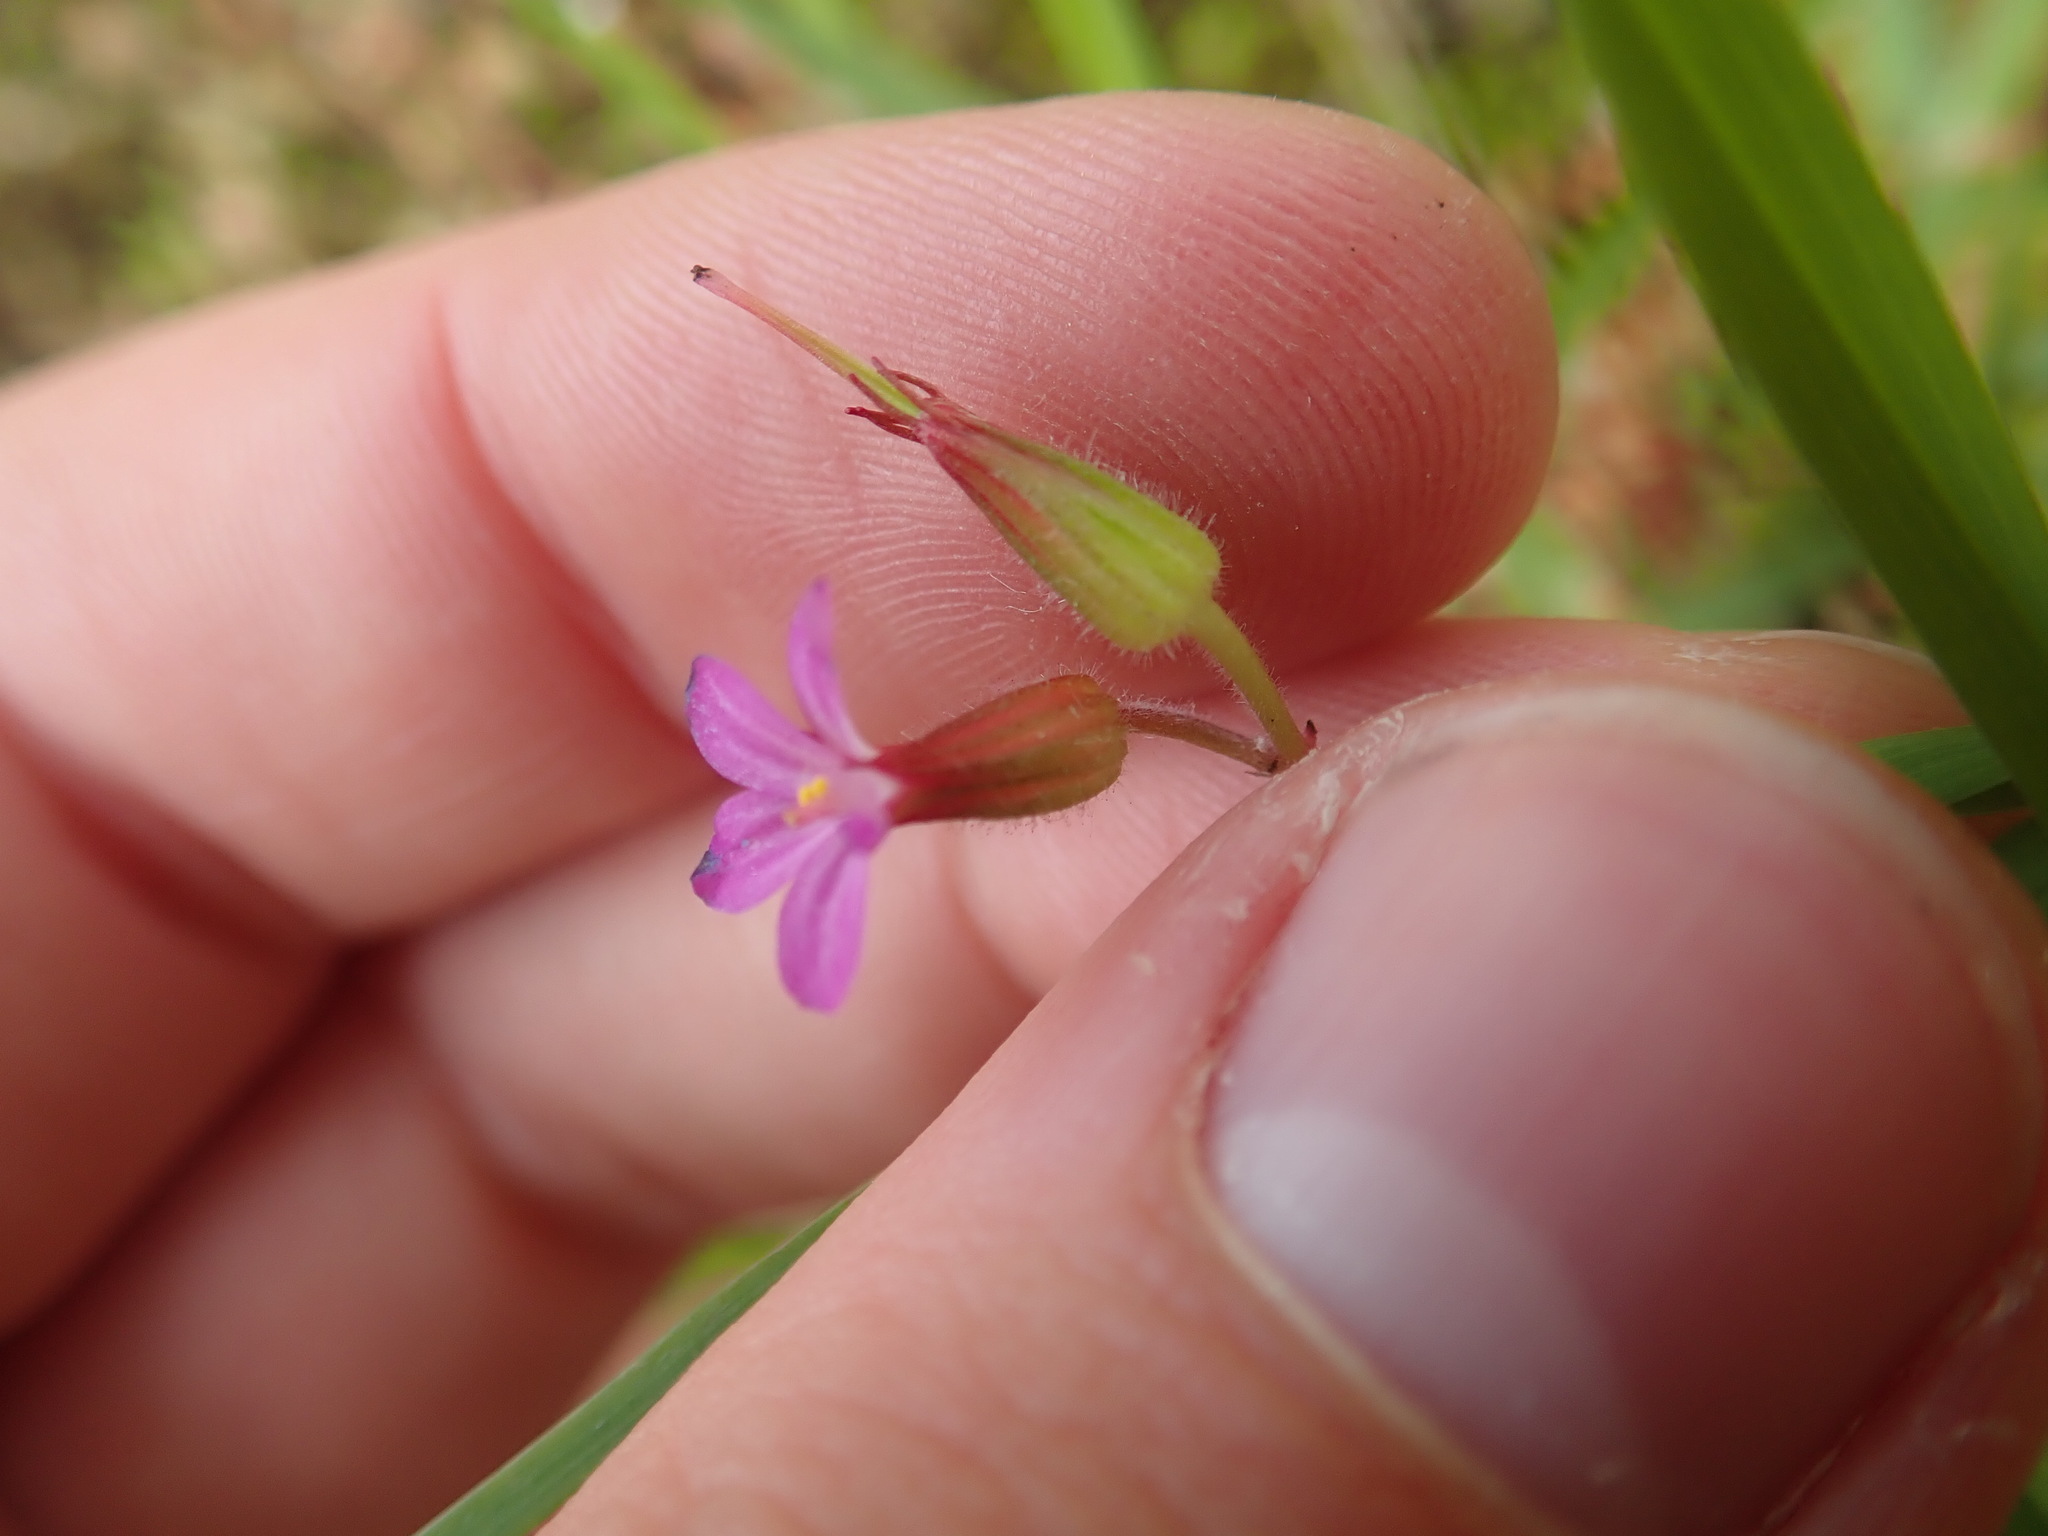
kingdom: Plantae
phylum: Tracheophyta
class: Magnoliopsida
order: Geraniales
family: Geraniaceae
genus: Geranium
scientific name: Geranium purpureum
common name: Little-robin
